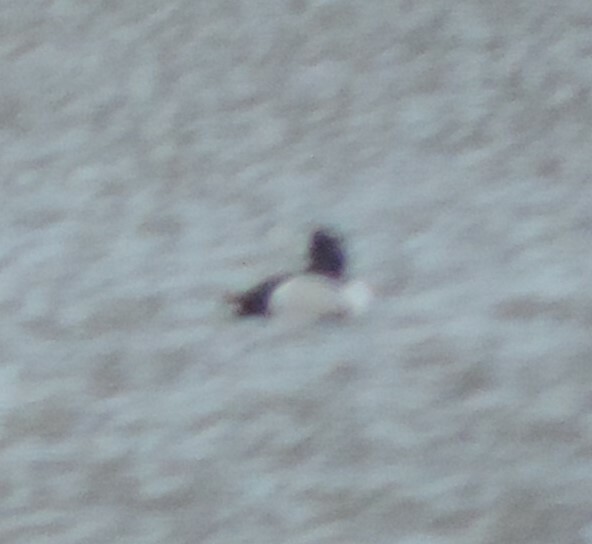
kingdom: Animalia
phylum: Chordata
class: Aves
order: Anseriformes
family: Anatidae
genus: Aythya
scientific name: Aythya collaris
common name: Ring-necked duck
